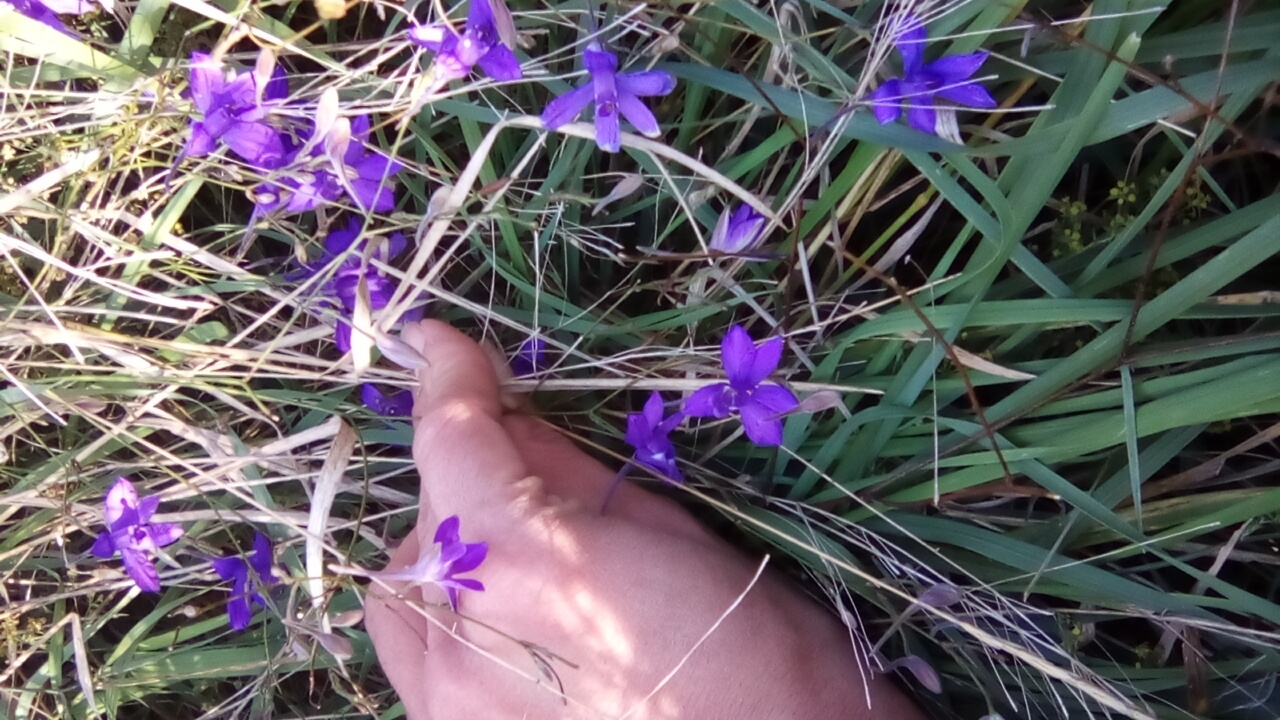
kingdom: Plantae
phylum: Tracheophyta
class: Magnoliopsida
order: Ranunculales
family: Ranunculaceae
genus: Delphinium
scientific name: Delphinium consolida
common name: Branching larkspur
